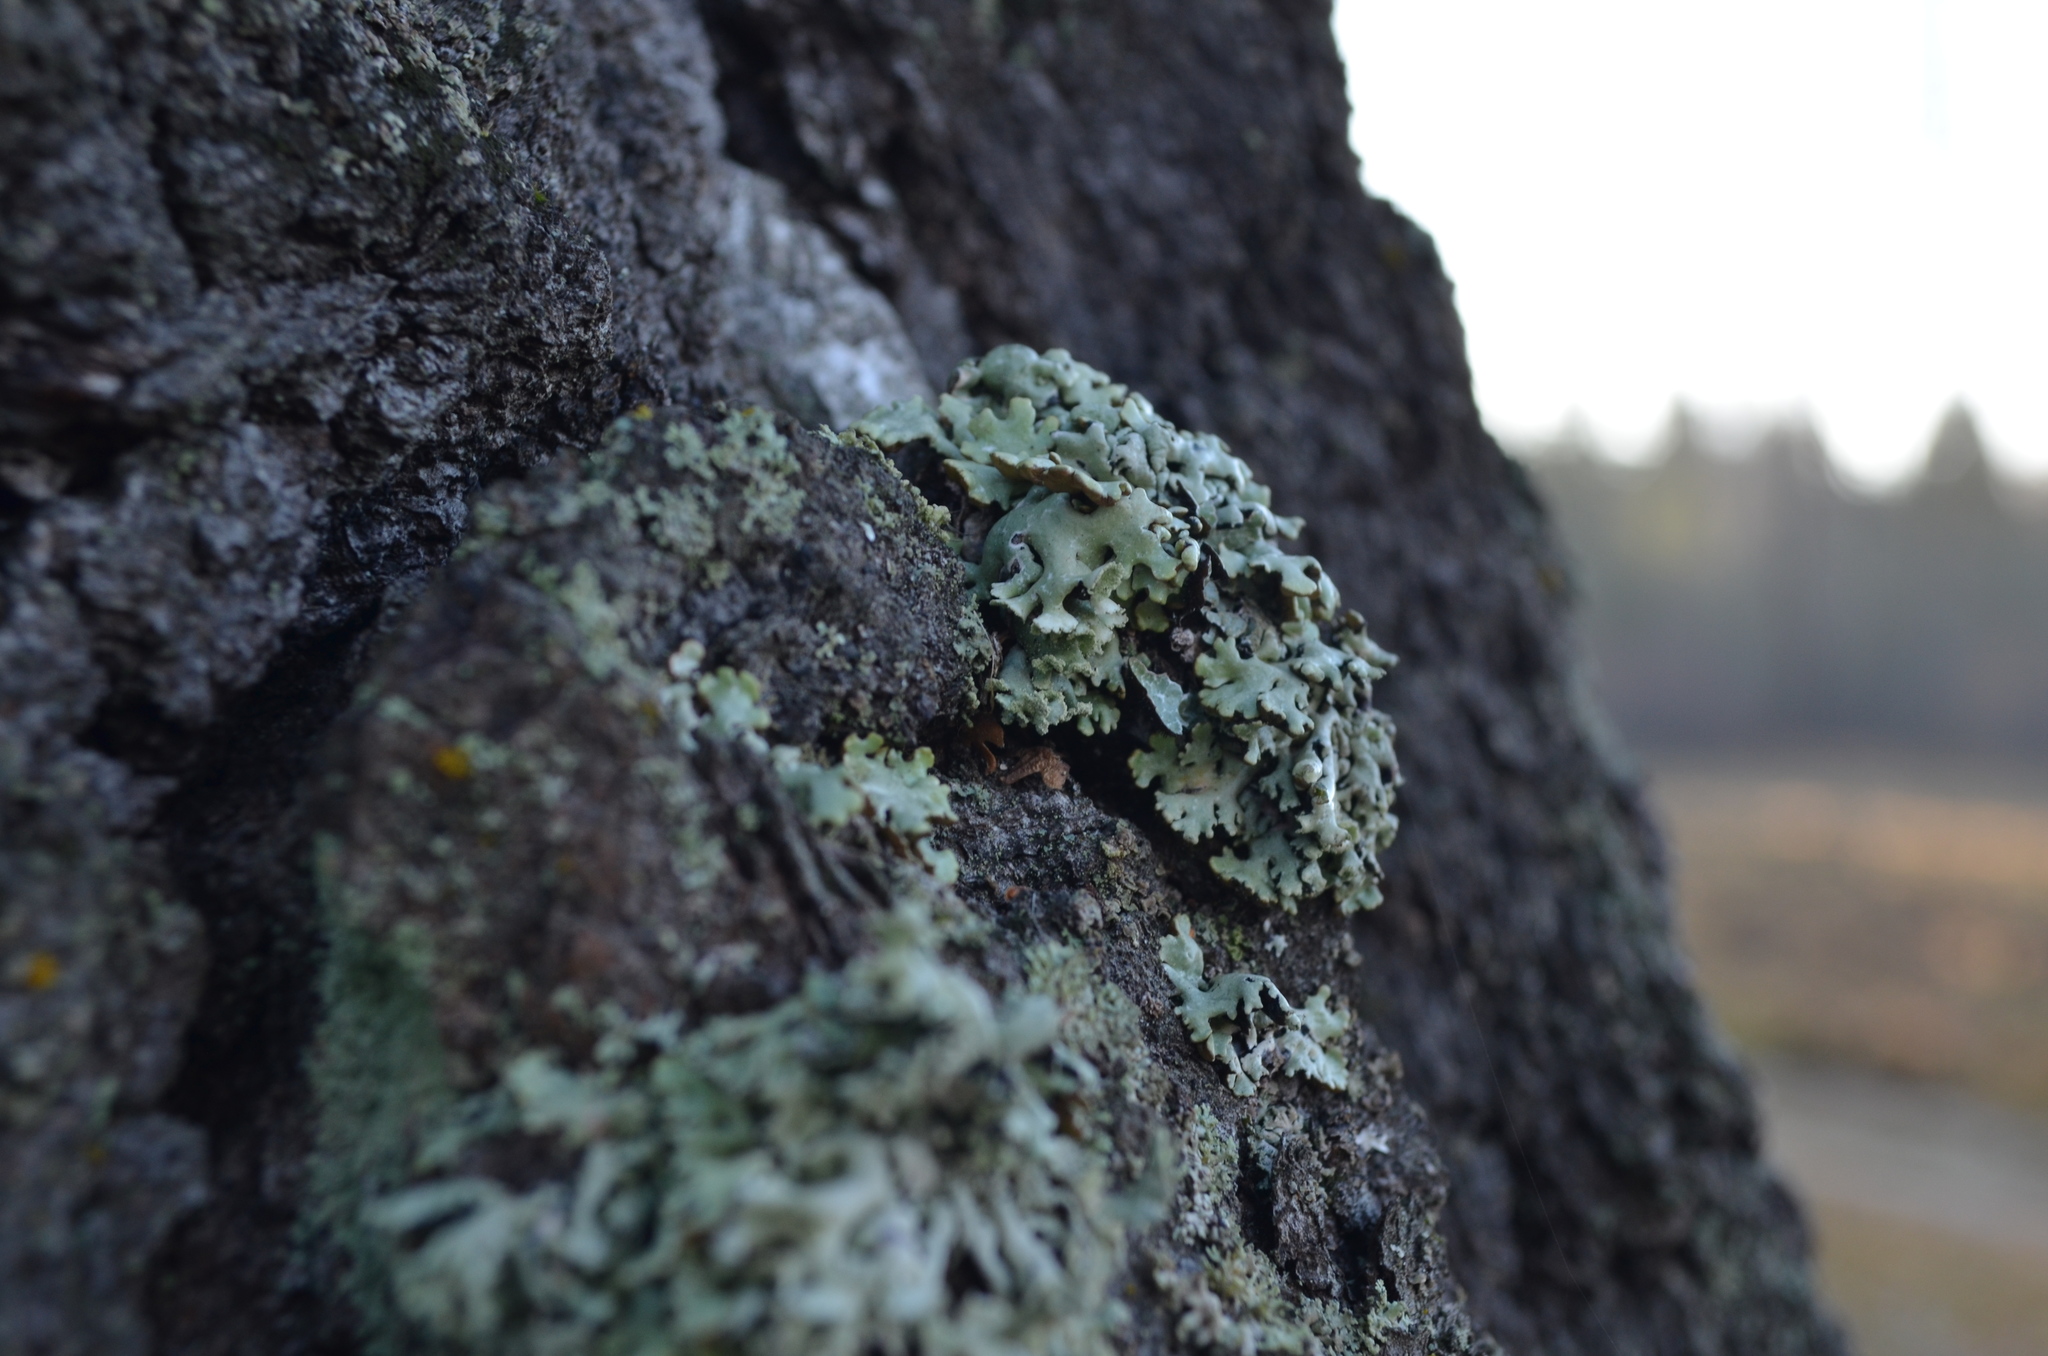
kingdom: Fungi
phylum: Ascomycota
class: Lecanoromycetes
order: Lecanorales
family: Parmeliaceae
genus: Hypogymnia
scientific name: Hypogymnia physodes
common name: Dark crottle
